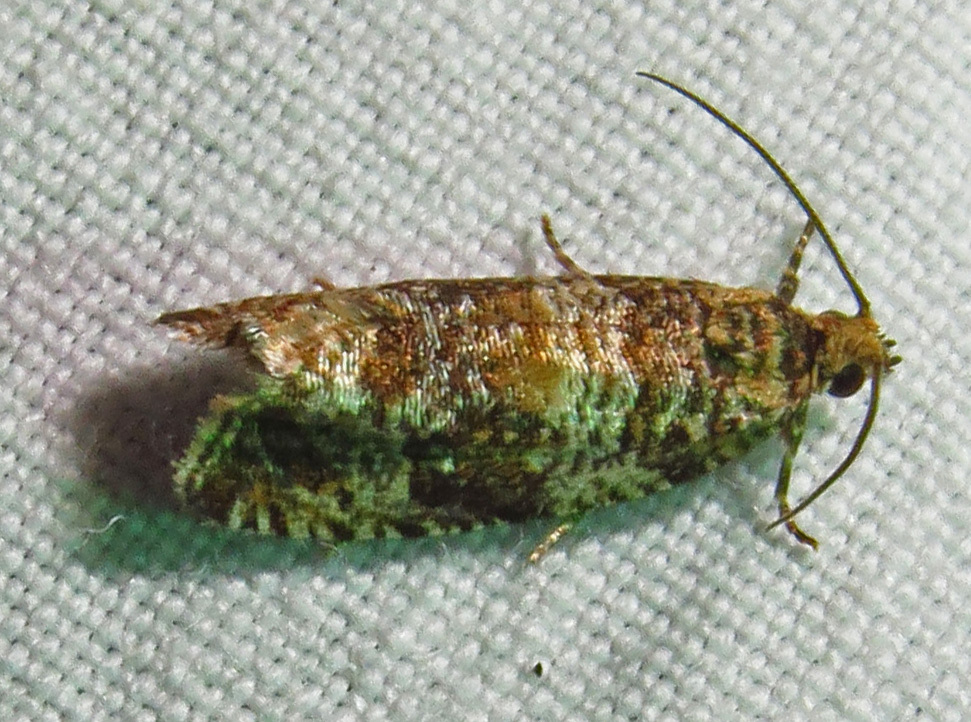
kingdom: Animalia
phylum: Arthropoda
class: Insecta
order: Lepidoptera
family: Tortricidae
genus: Celypha
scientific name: Celypha cespitana
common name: Thyme marble
